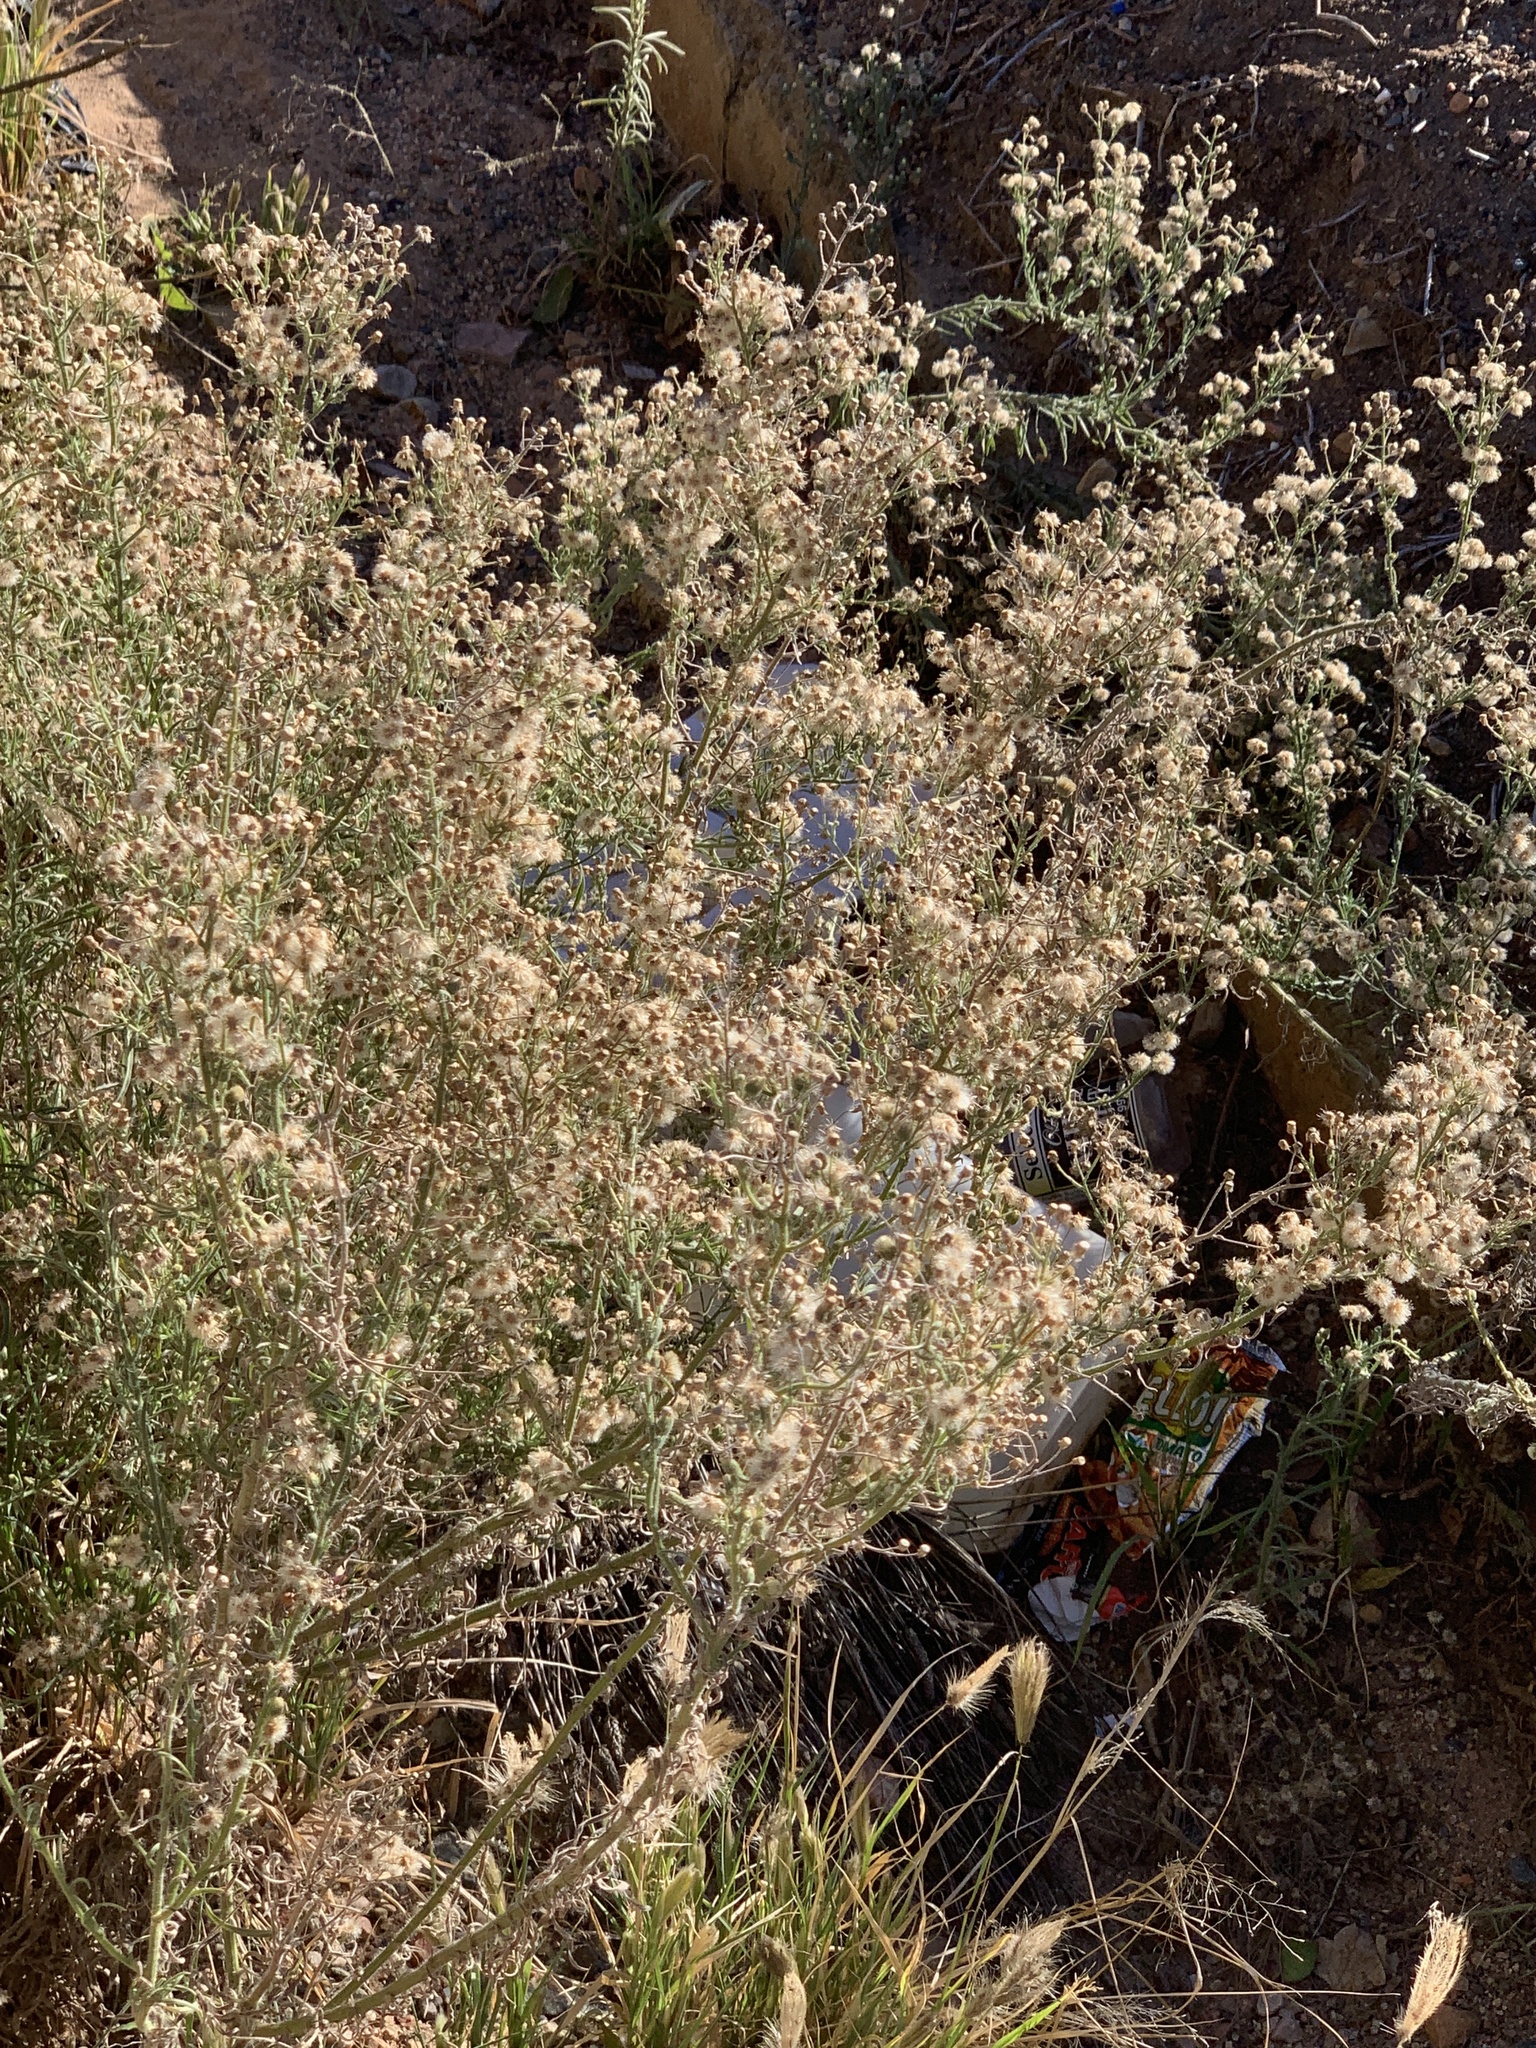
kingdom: Plantae
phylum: Tracheophyta
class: Magnoliopsida
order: Asterales
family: Asteraceae
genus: Erigeron
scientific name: Erigeron bonariensis
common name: Argentine fleabane
